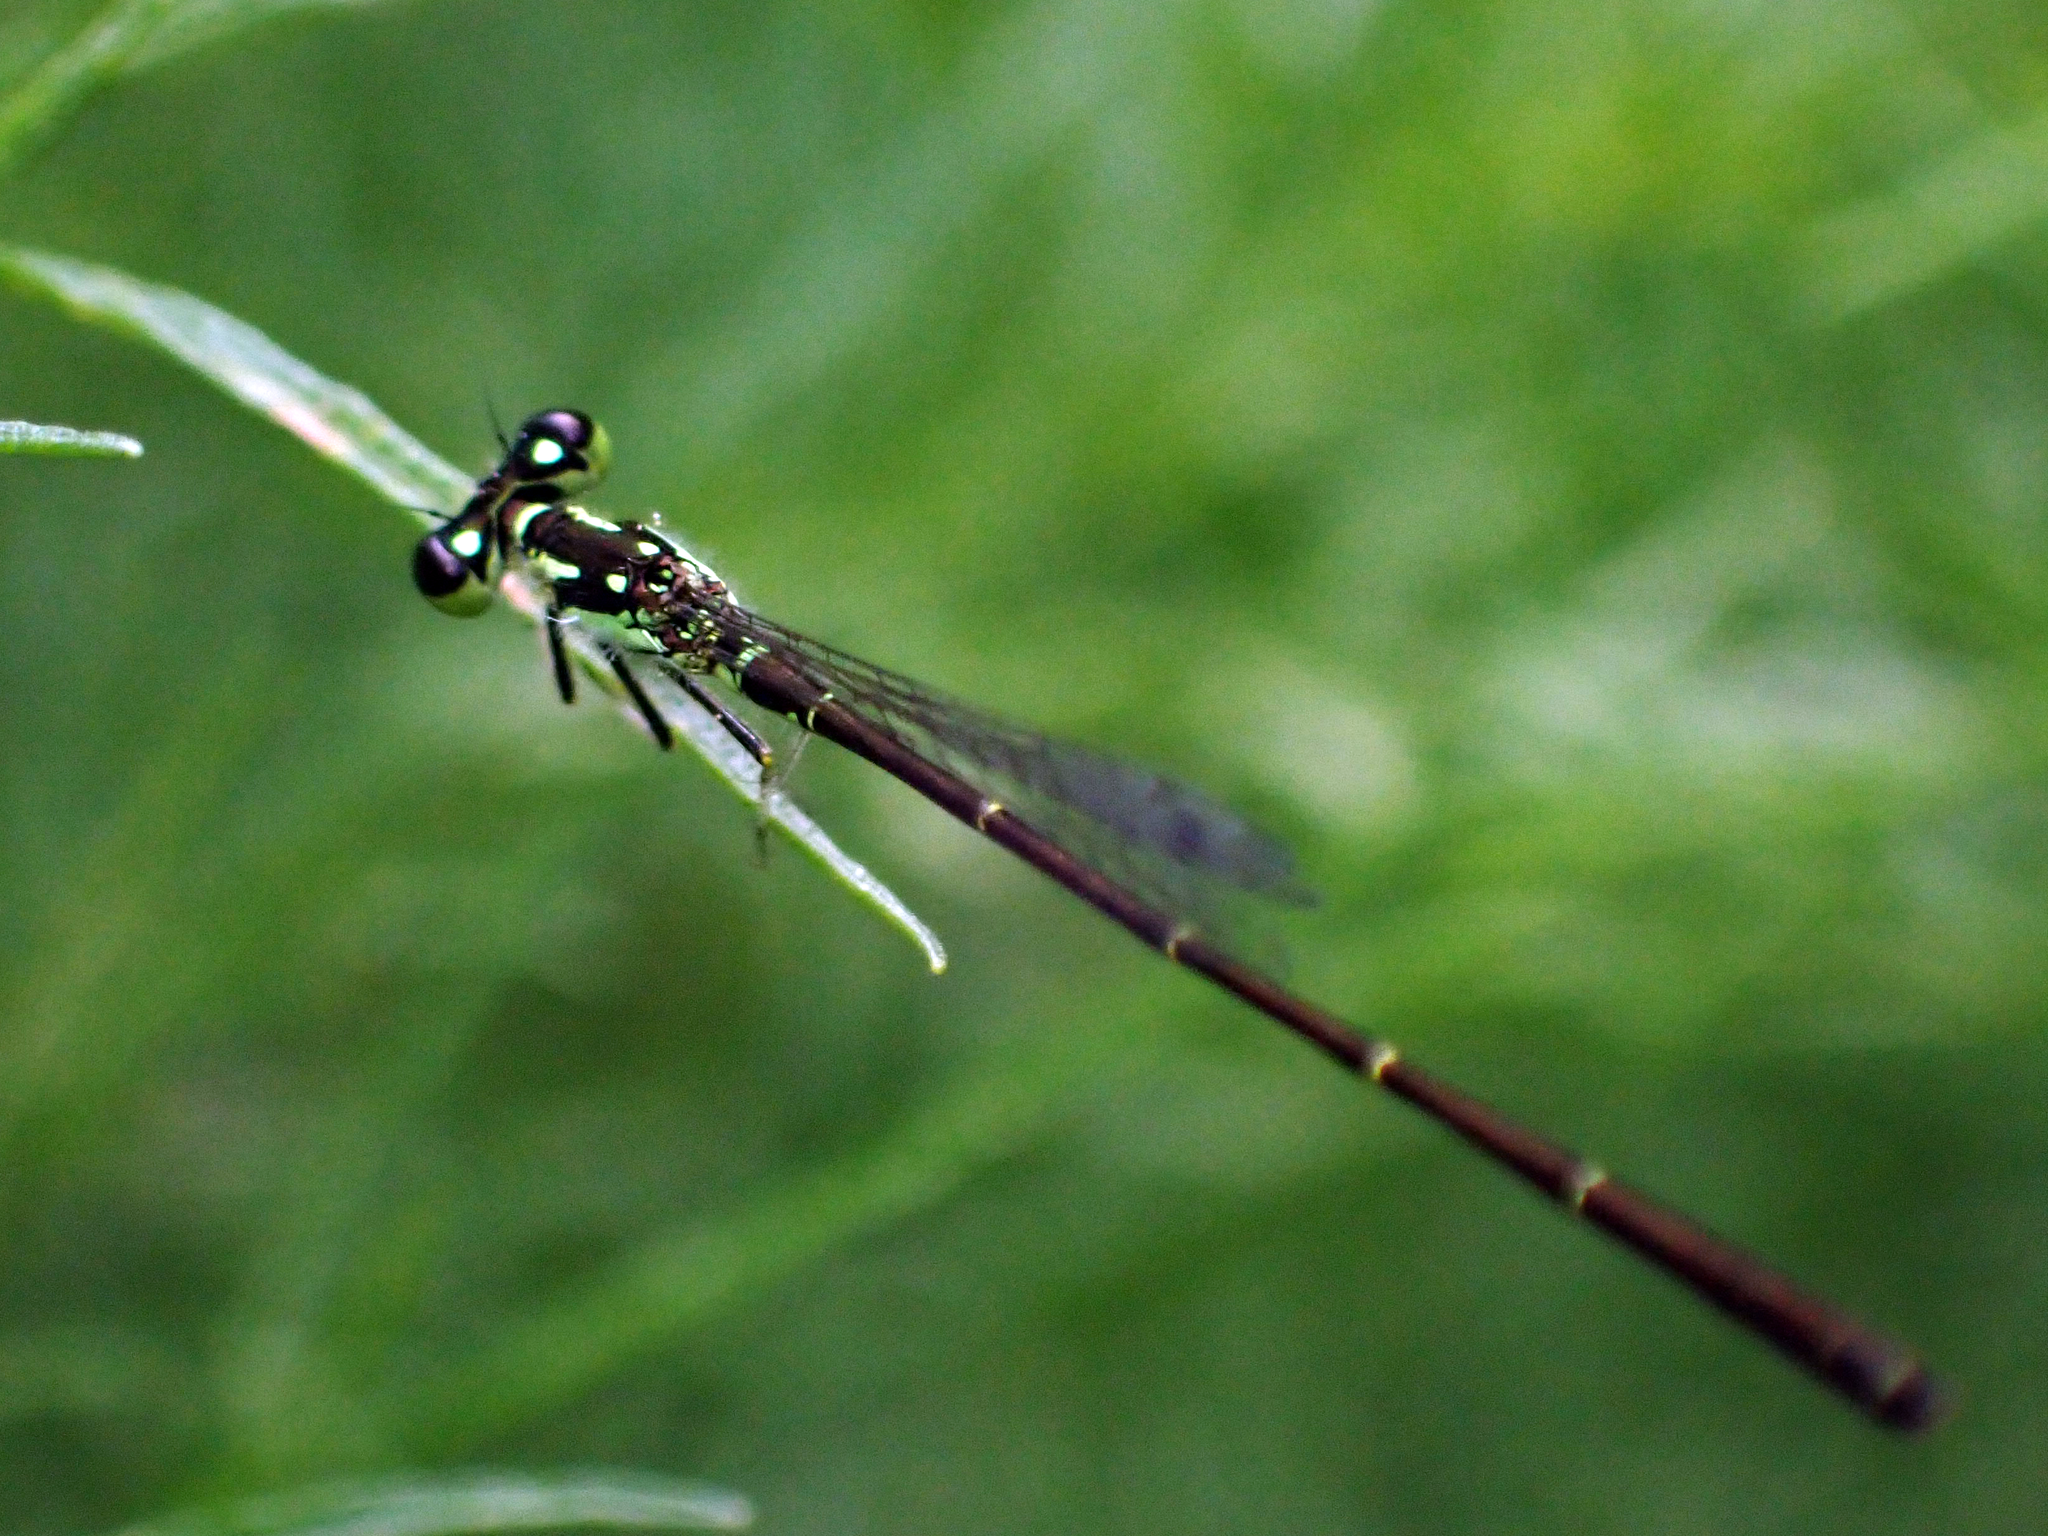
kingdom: Animalia
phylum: Arthropoda
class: Insecta
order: Odonata
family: Coenagrionidae
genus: Ischnura
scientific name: Ischnura posita
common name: Fragile forktail
